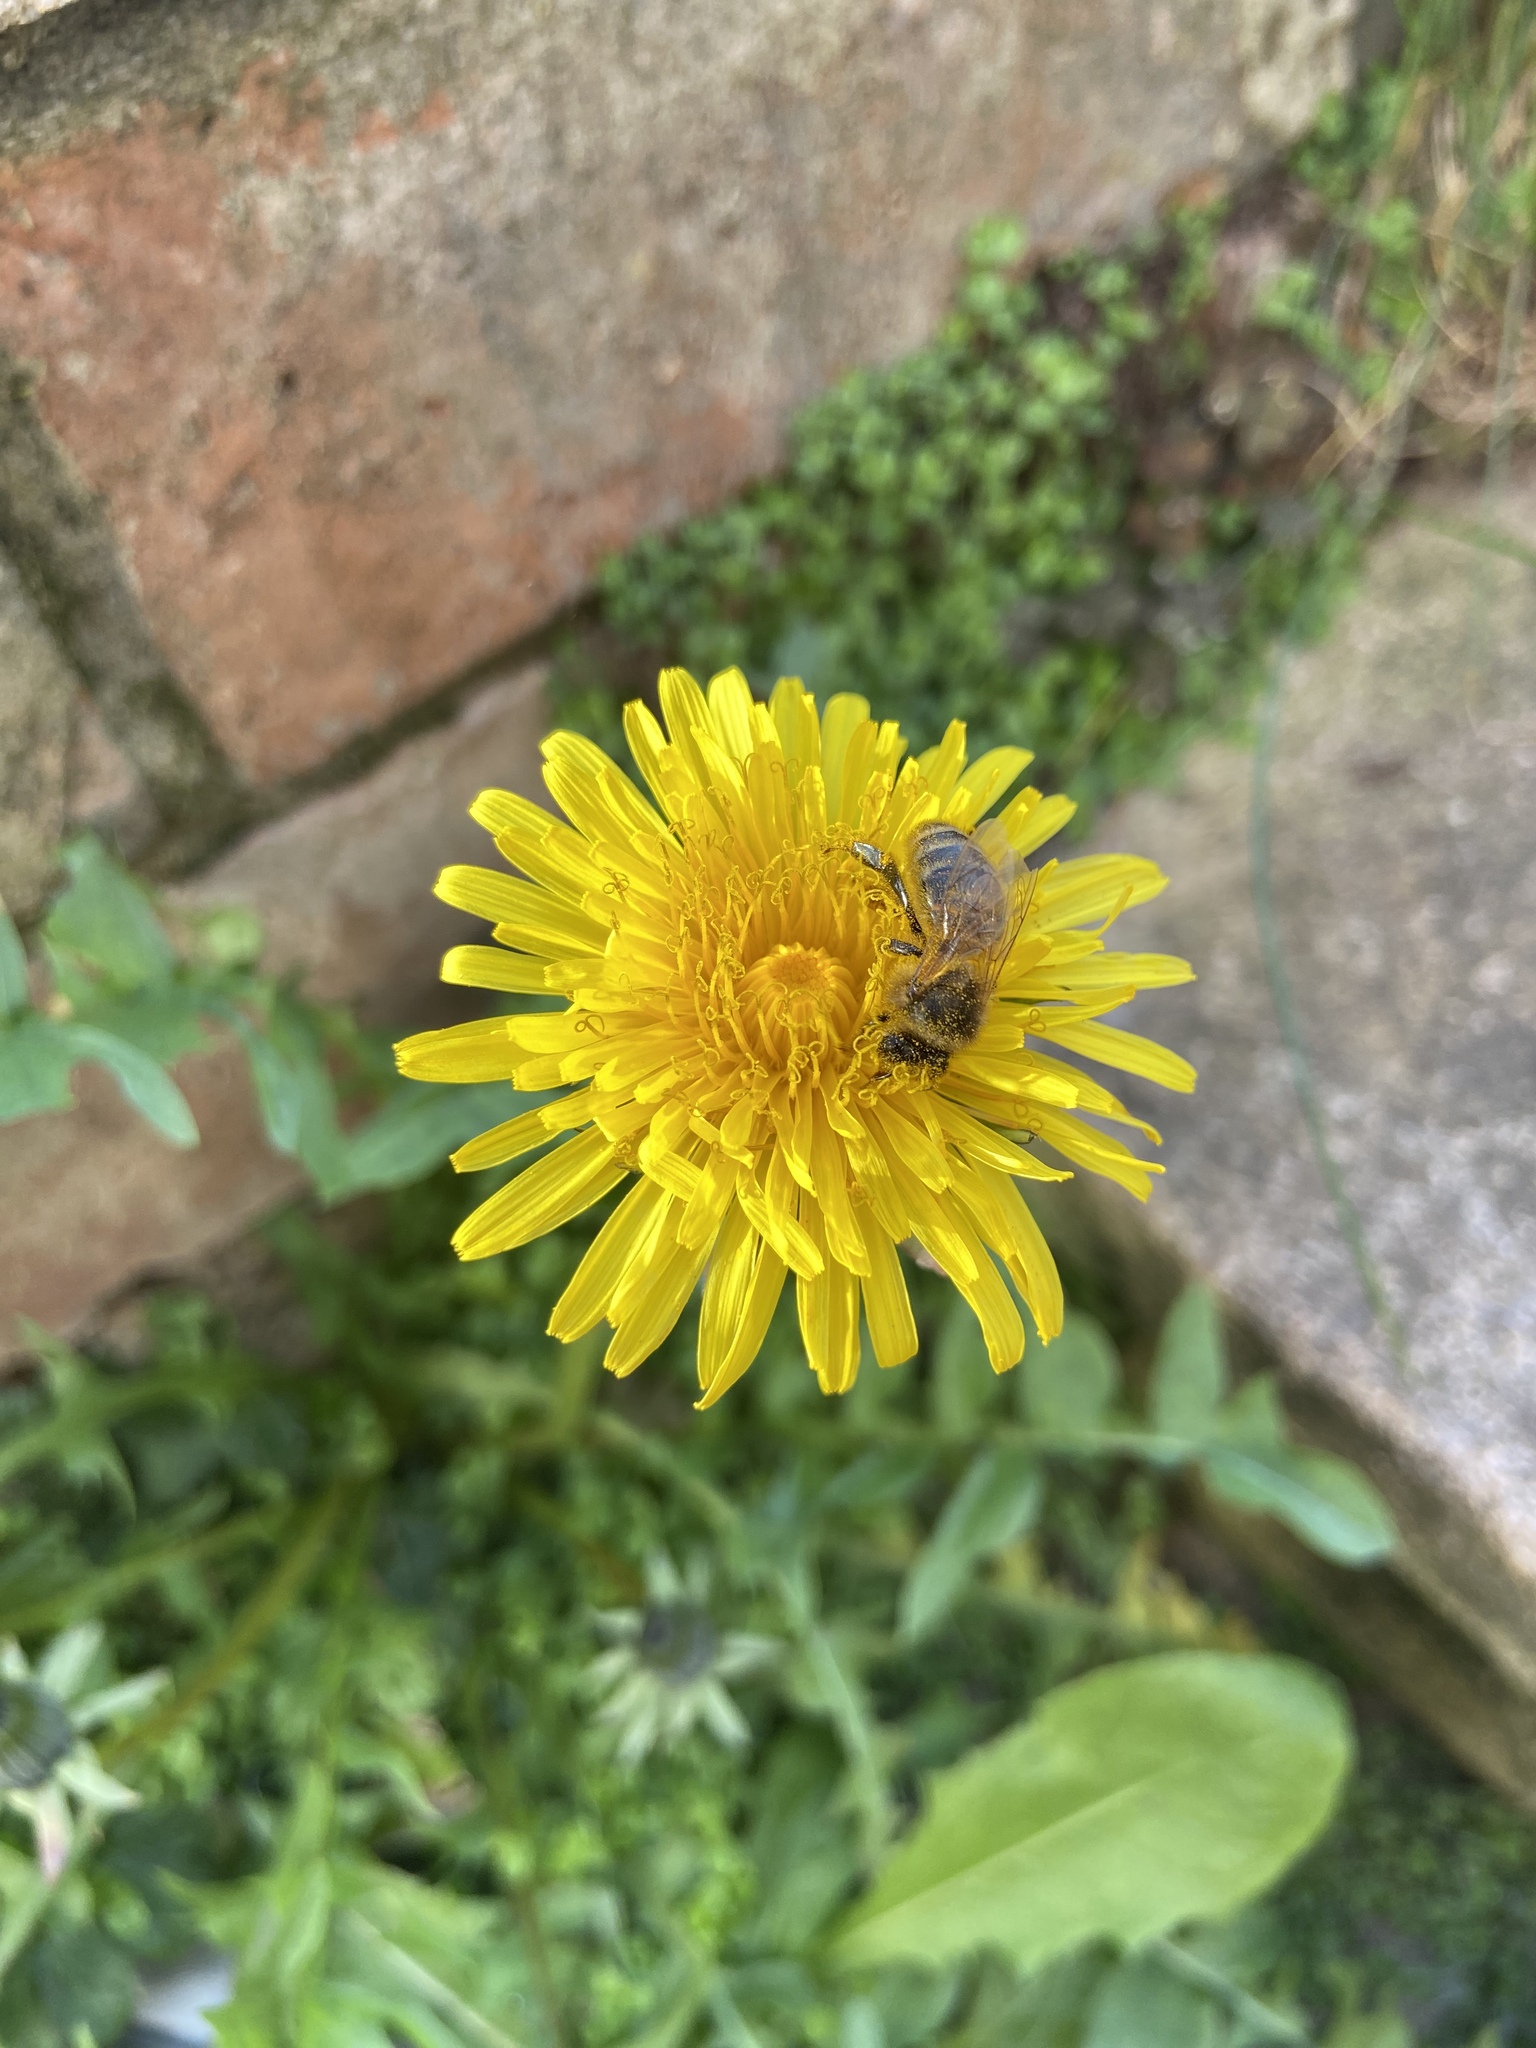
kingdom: Animalia
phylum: Arthropoda
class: Insecta
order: Hymenoptera
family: Apidae
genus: Apis
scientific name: Apis mellifera
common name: Honey bee
